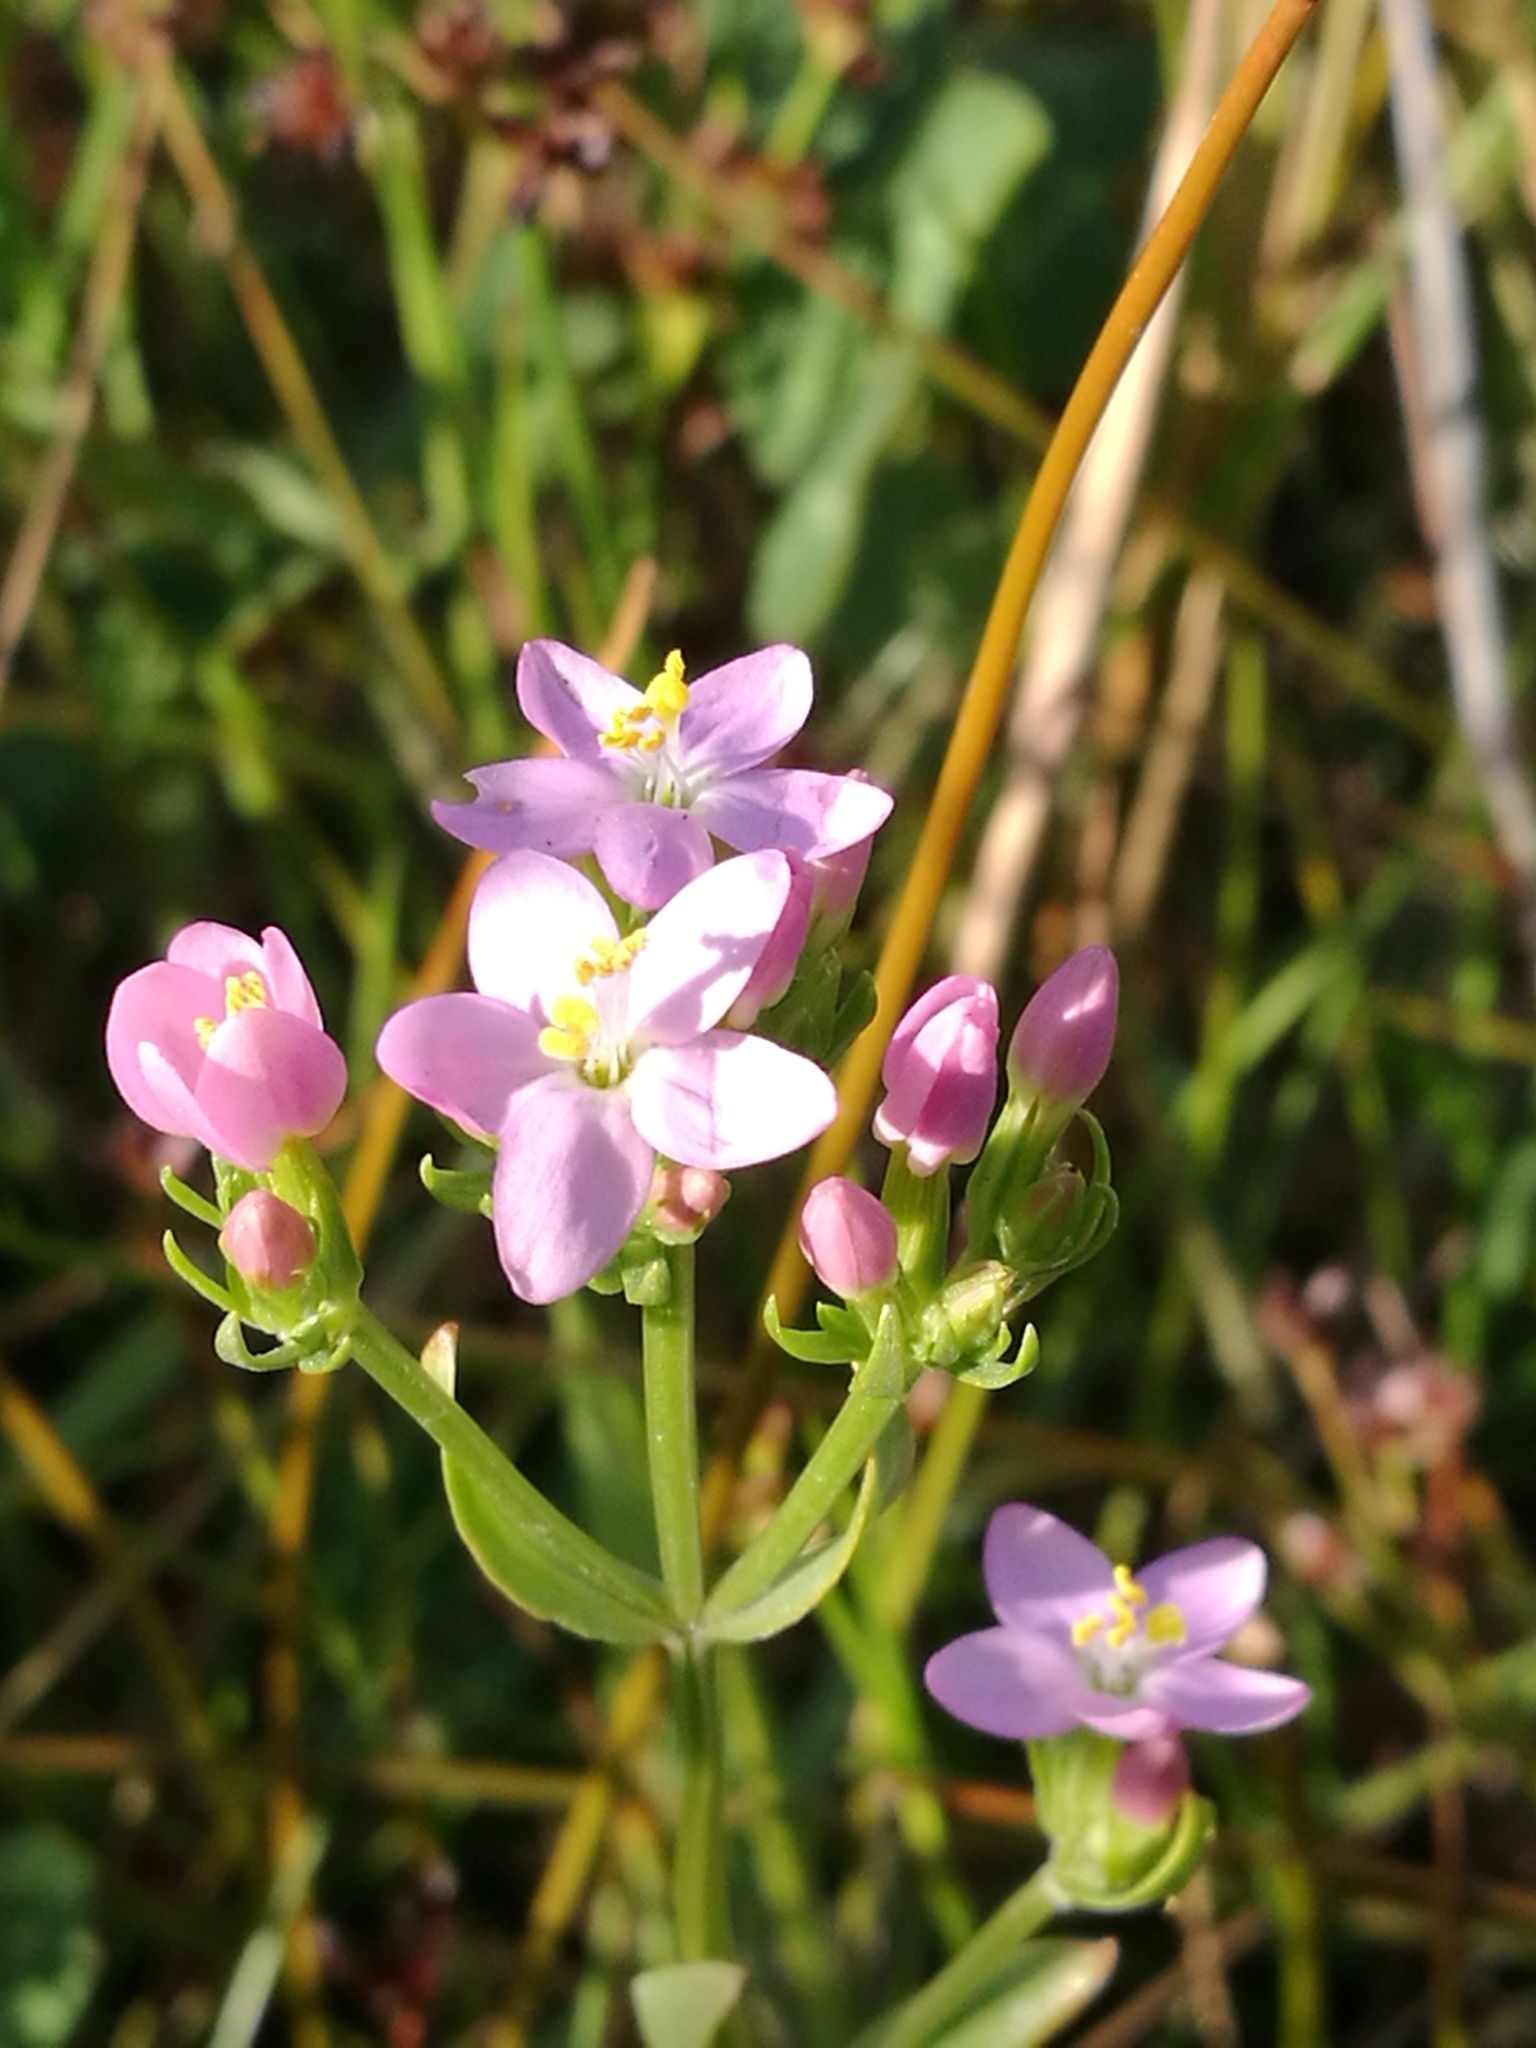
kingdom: Plantae
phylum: Tracheophyta
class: Magnoliopsida
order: Gentianales
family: Gentianaceae
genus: Centaurium
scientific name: Centaurium erythraea
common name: Common centaury
